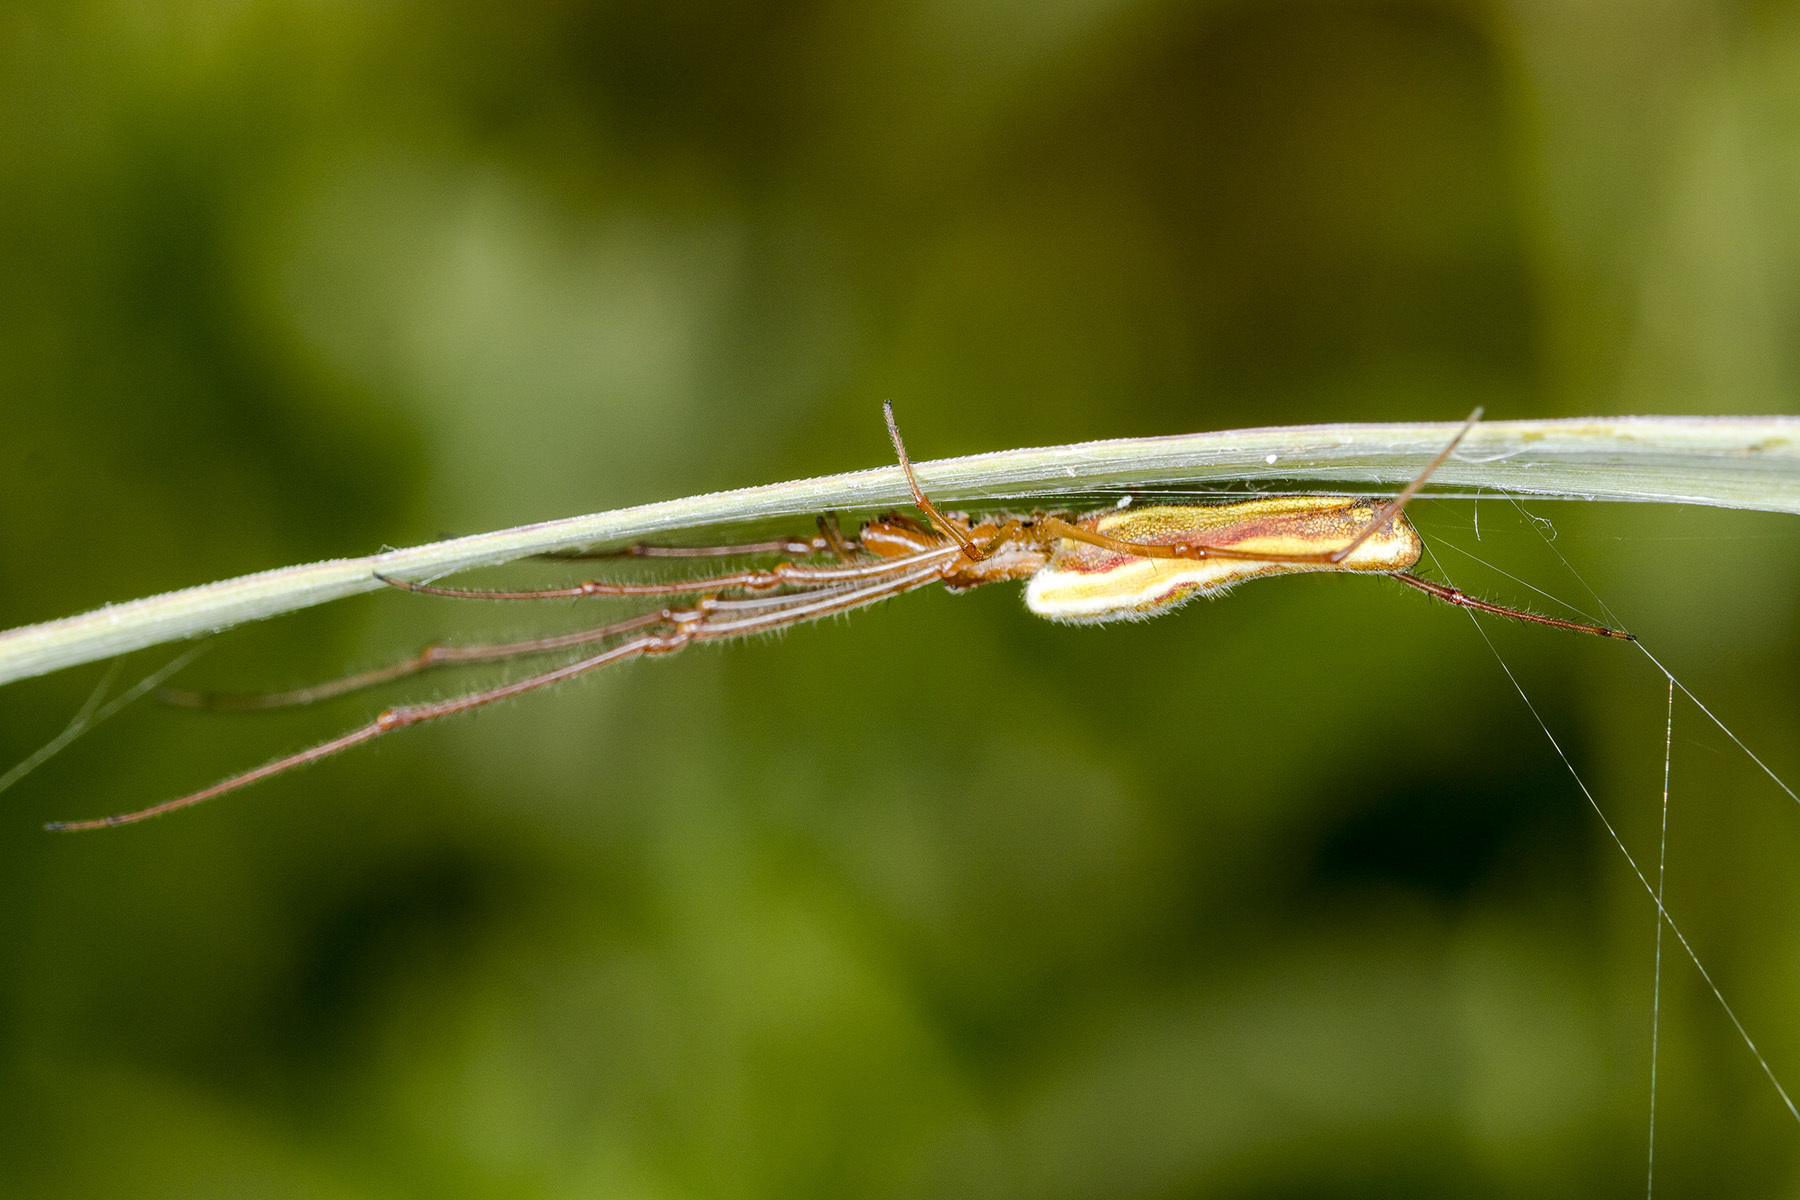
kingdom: Animalia
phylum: Arthropoda
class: Arachnida
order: Araneae
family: Tetragnathidae
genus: Tetragnatha
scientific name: Tetragnatha extensa
